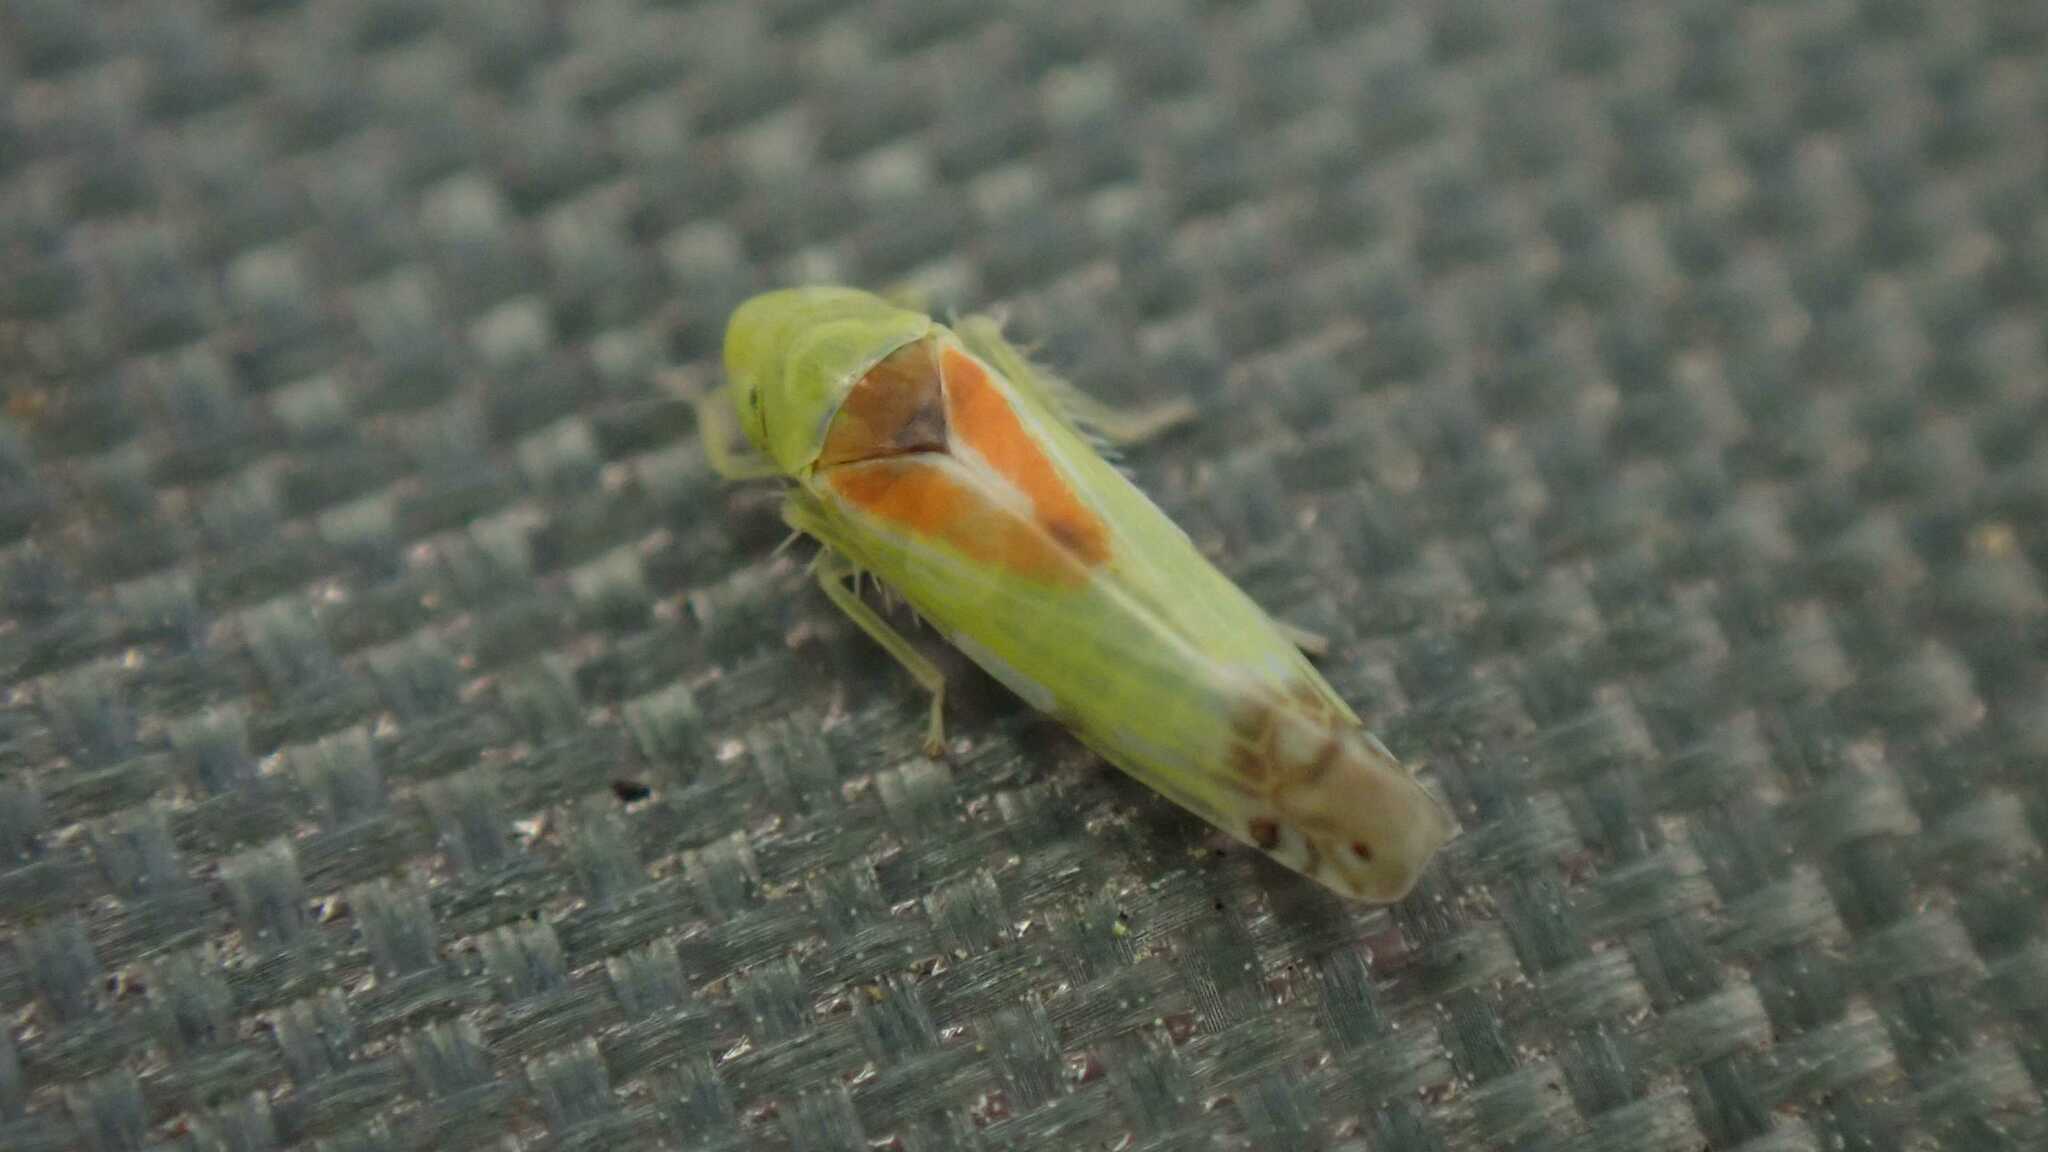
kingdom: Animalia
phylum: Arthropoda
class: Insecta
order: Hemiptera
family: Cicadellidae
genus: Zyginella
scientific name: Zyginella pulchra
